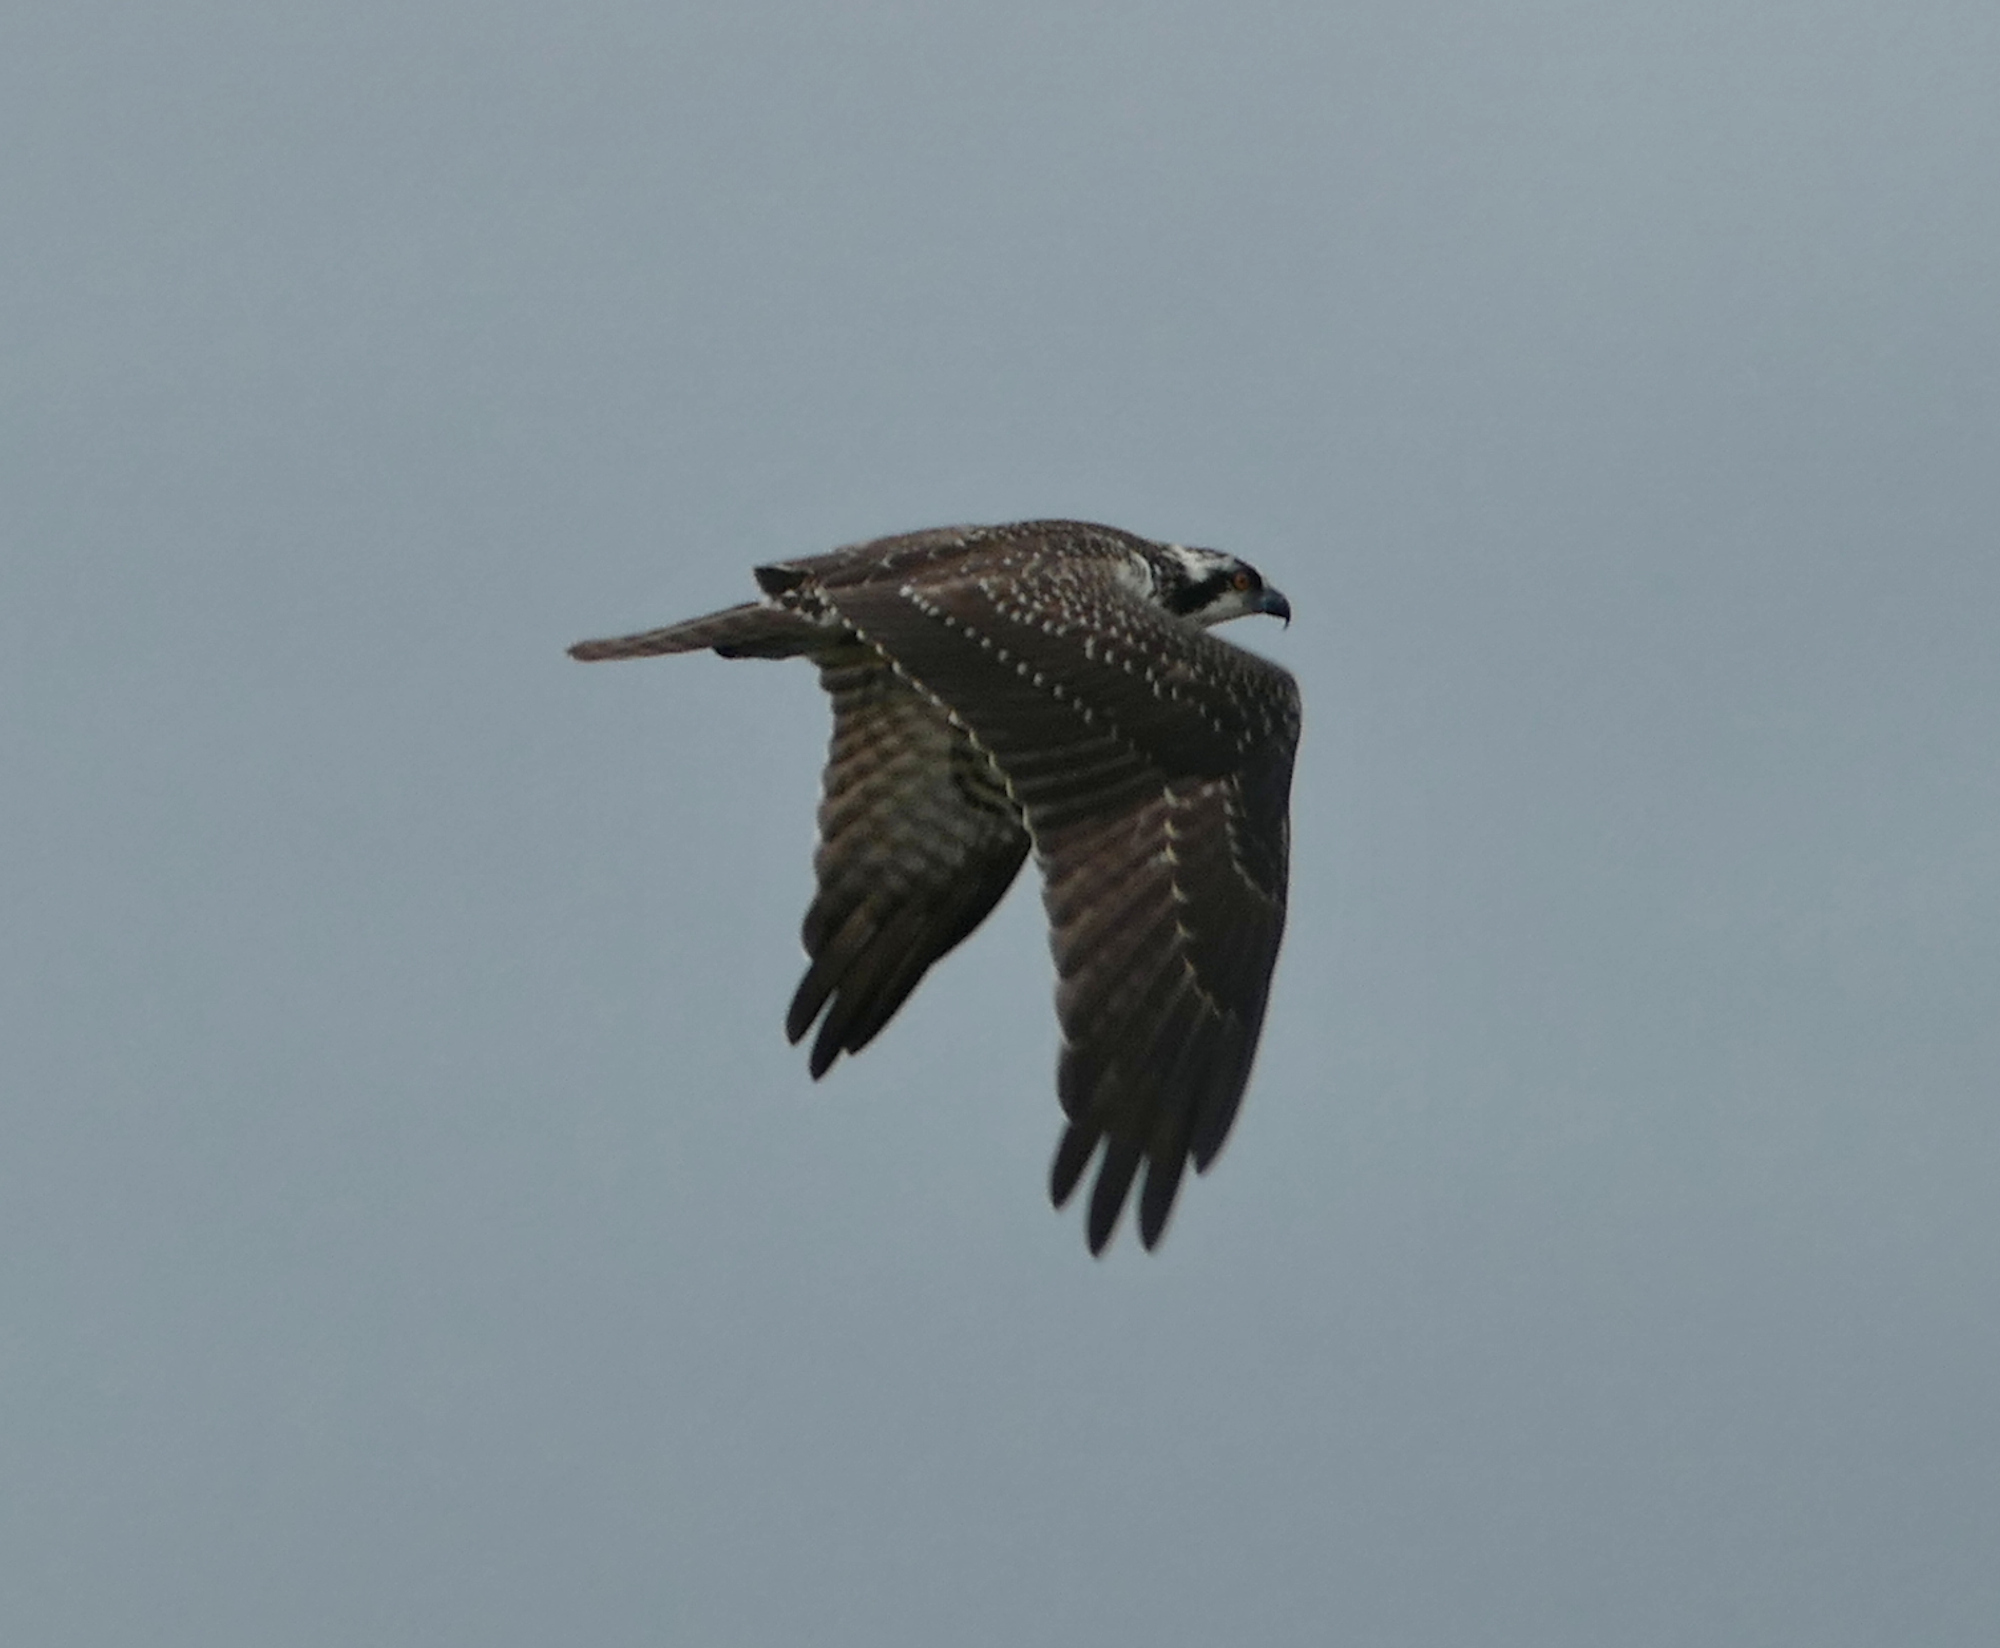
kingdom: Animalia
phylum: Chordata
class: Aves
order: Accipitriformes
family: Pandionidae
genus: Pandion
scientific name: Pandion haliaetus
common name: Osprey
